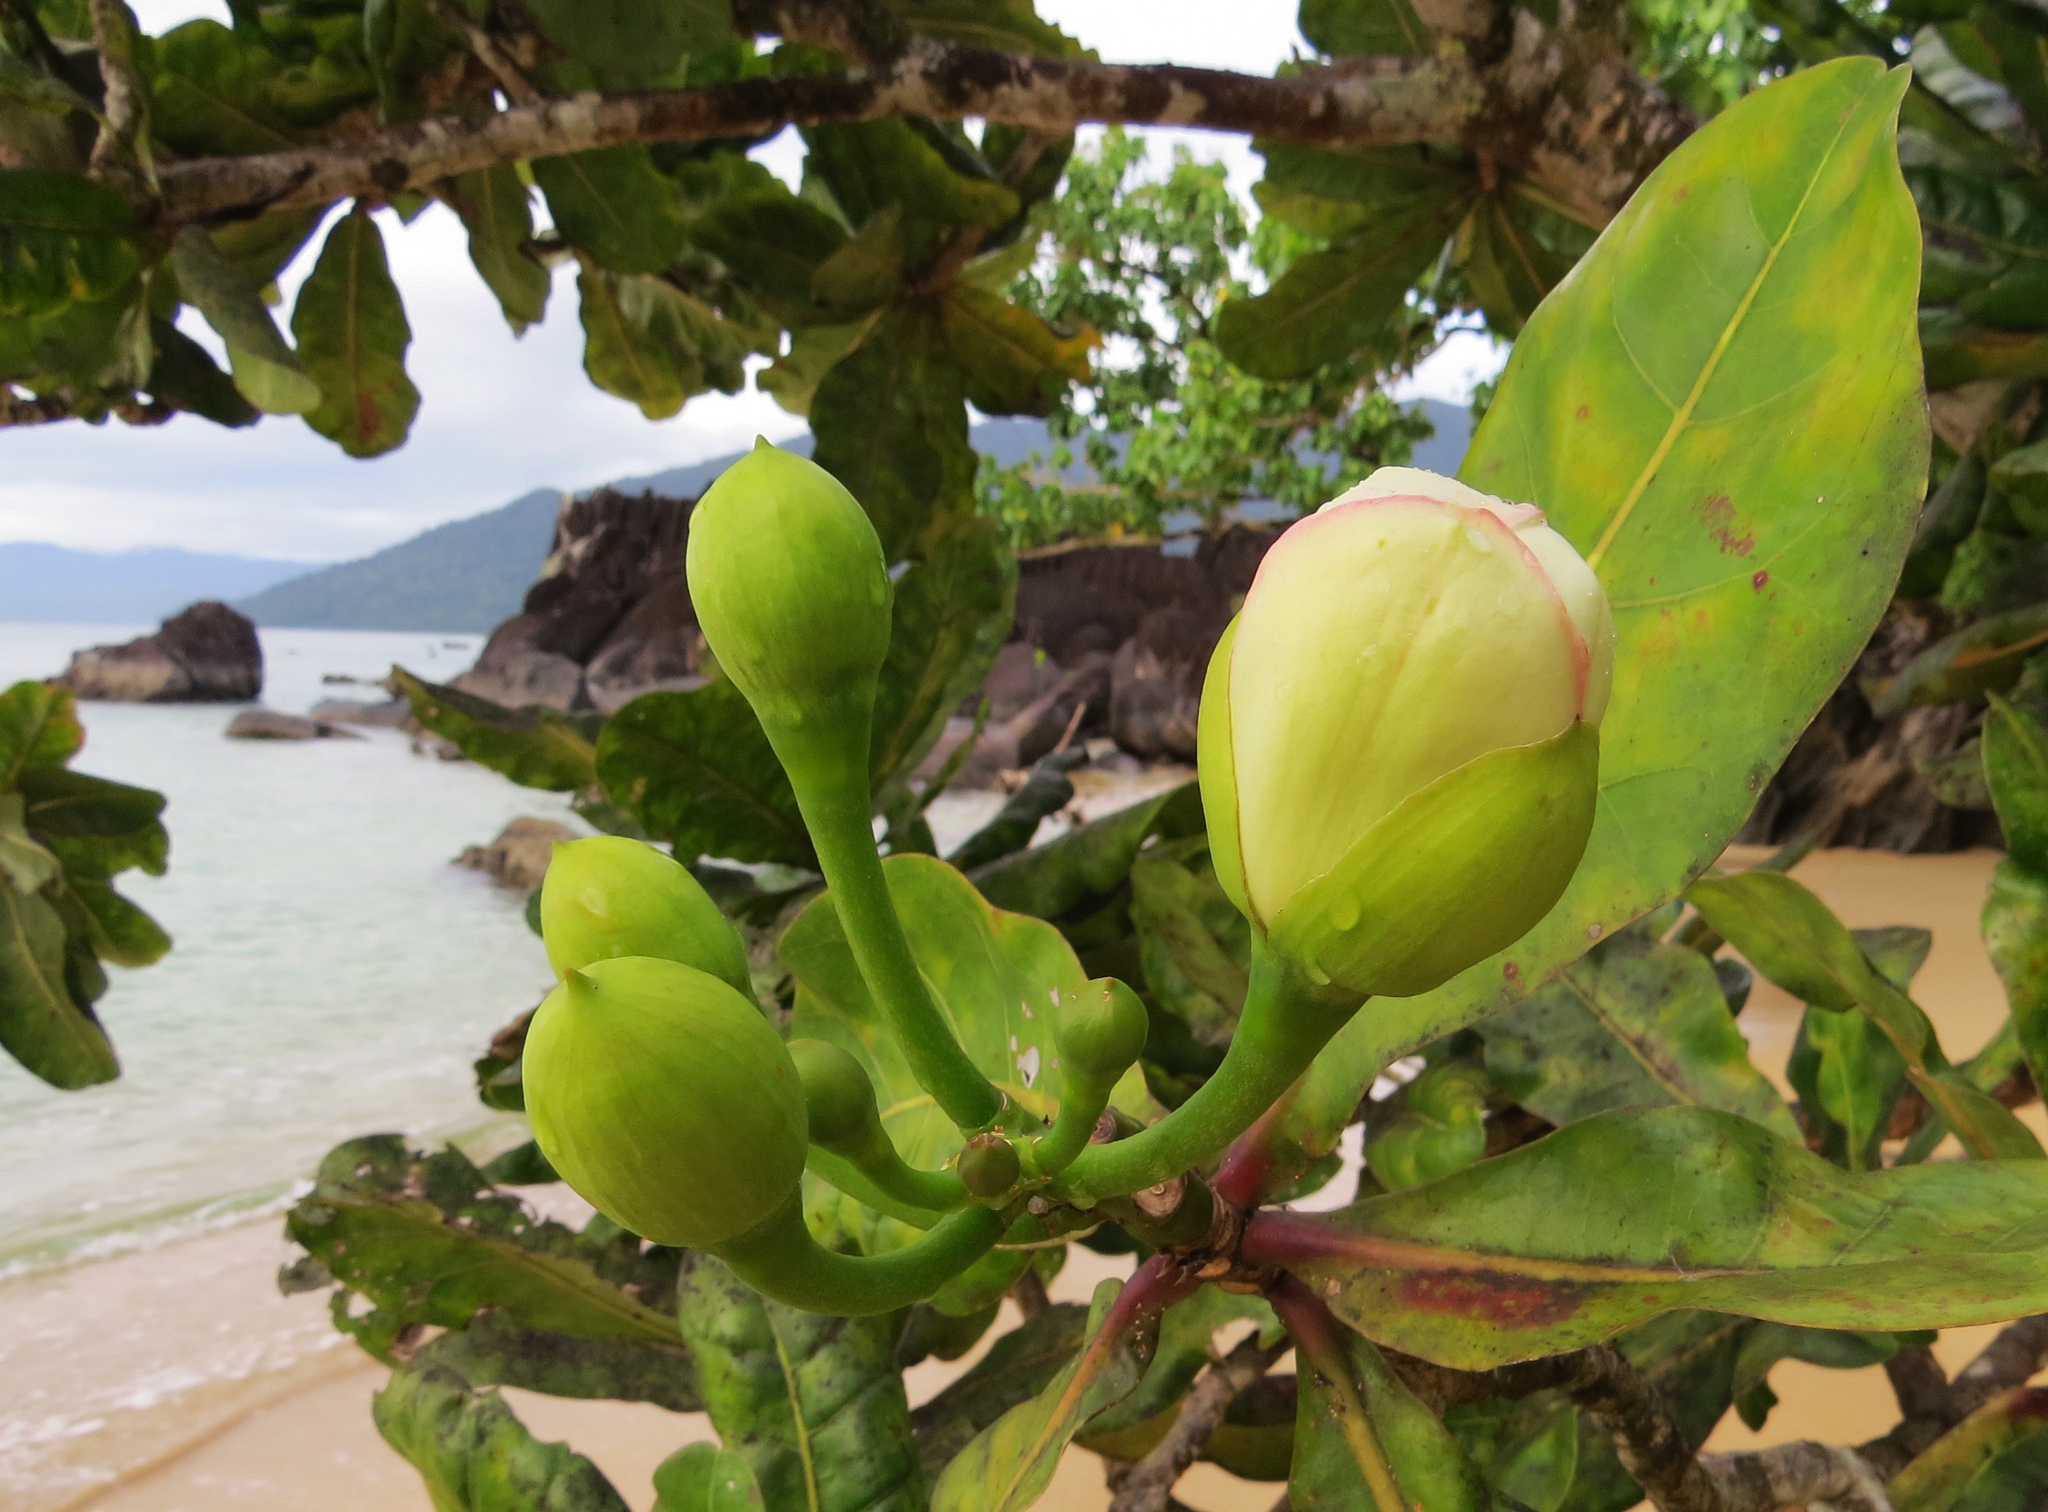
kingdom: Plantae
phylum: Tracheophyta
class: Magnoliopsida
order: Ericales
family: Lecythidaceae
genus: Barringtonia
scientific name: Barringtonia asiatica
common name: Mango-pine
